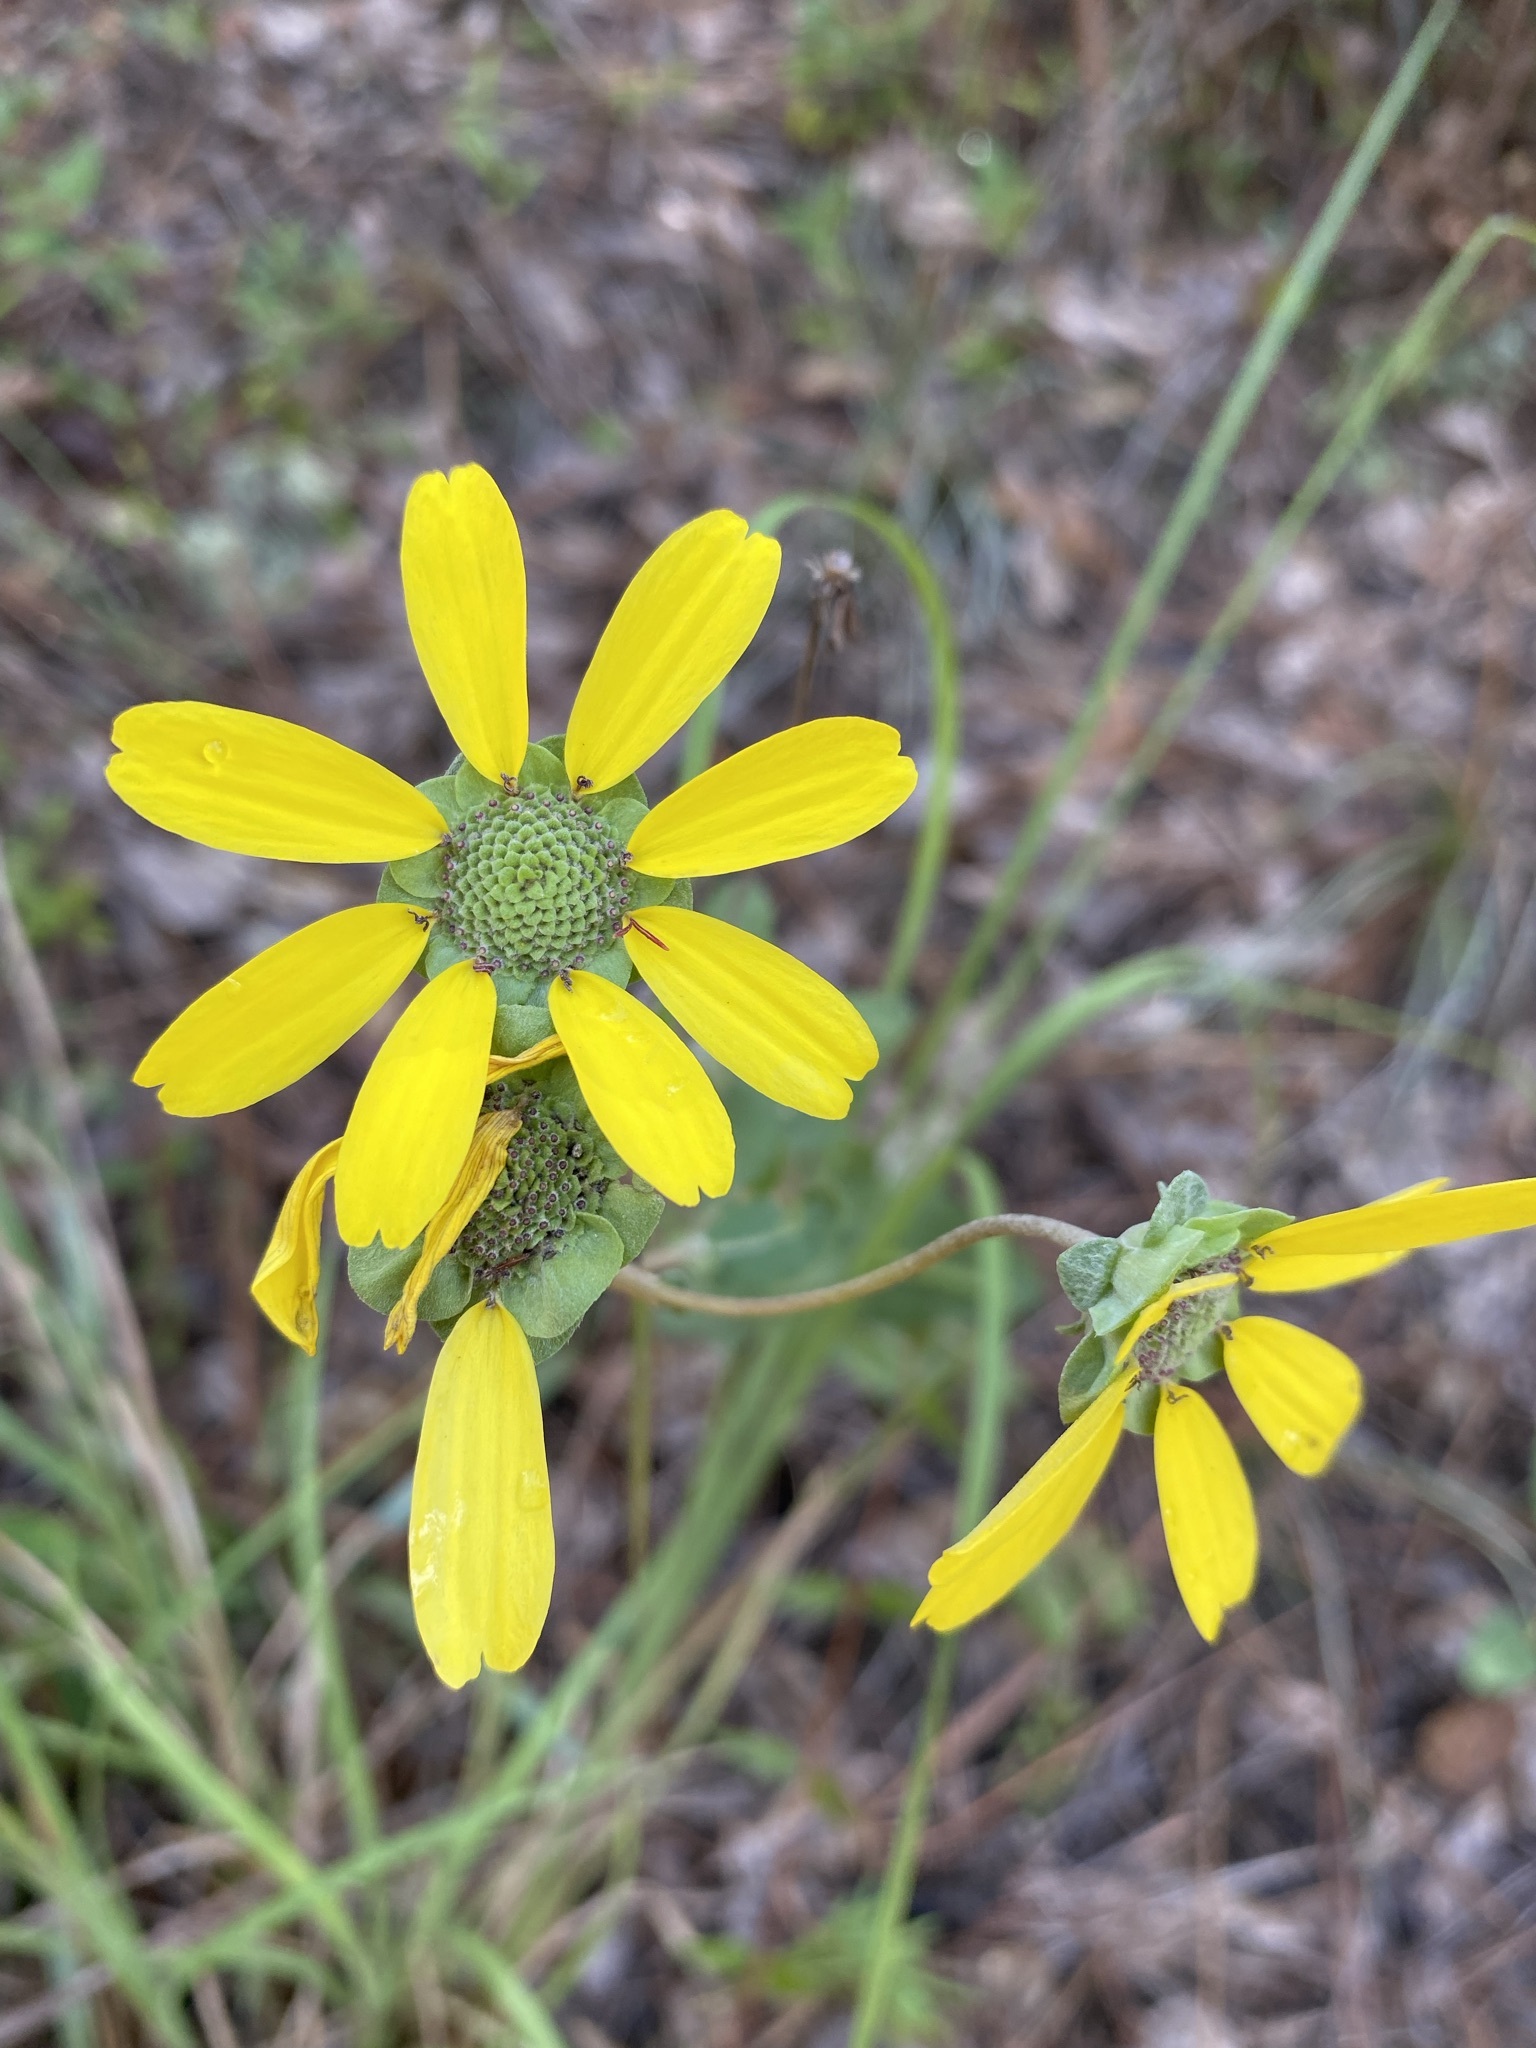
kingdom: Plantae
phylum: Tracheophyta
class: Magnoliopsida
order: Asterales
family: Asteraceae
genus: Berlandiera
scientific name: Berlandiera pumila
